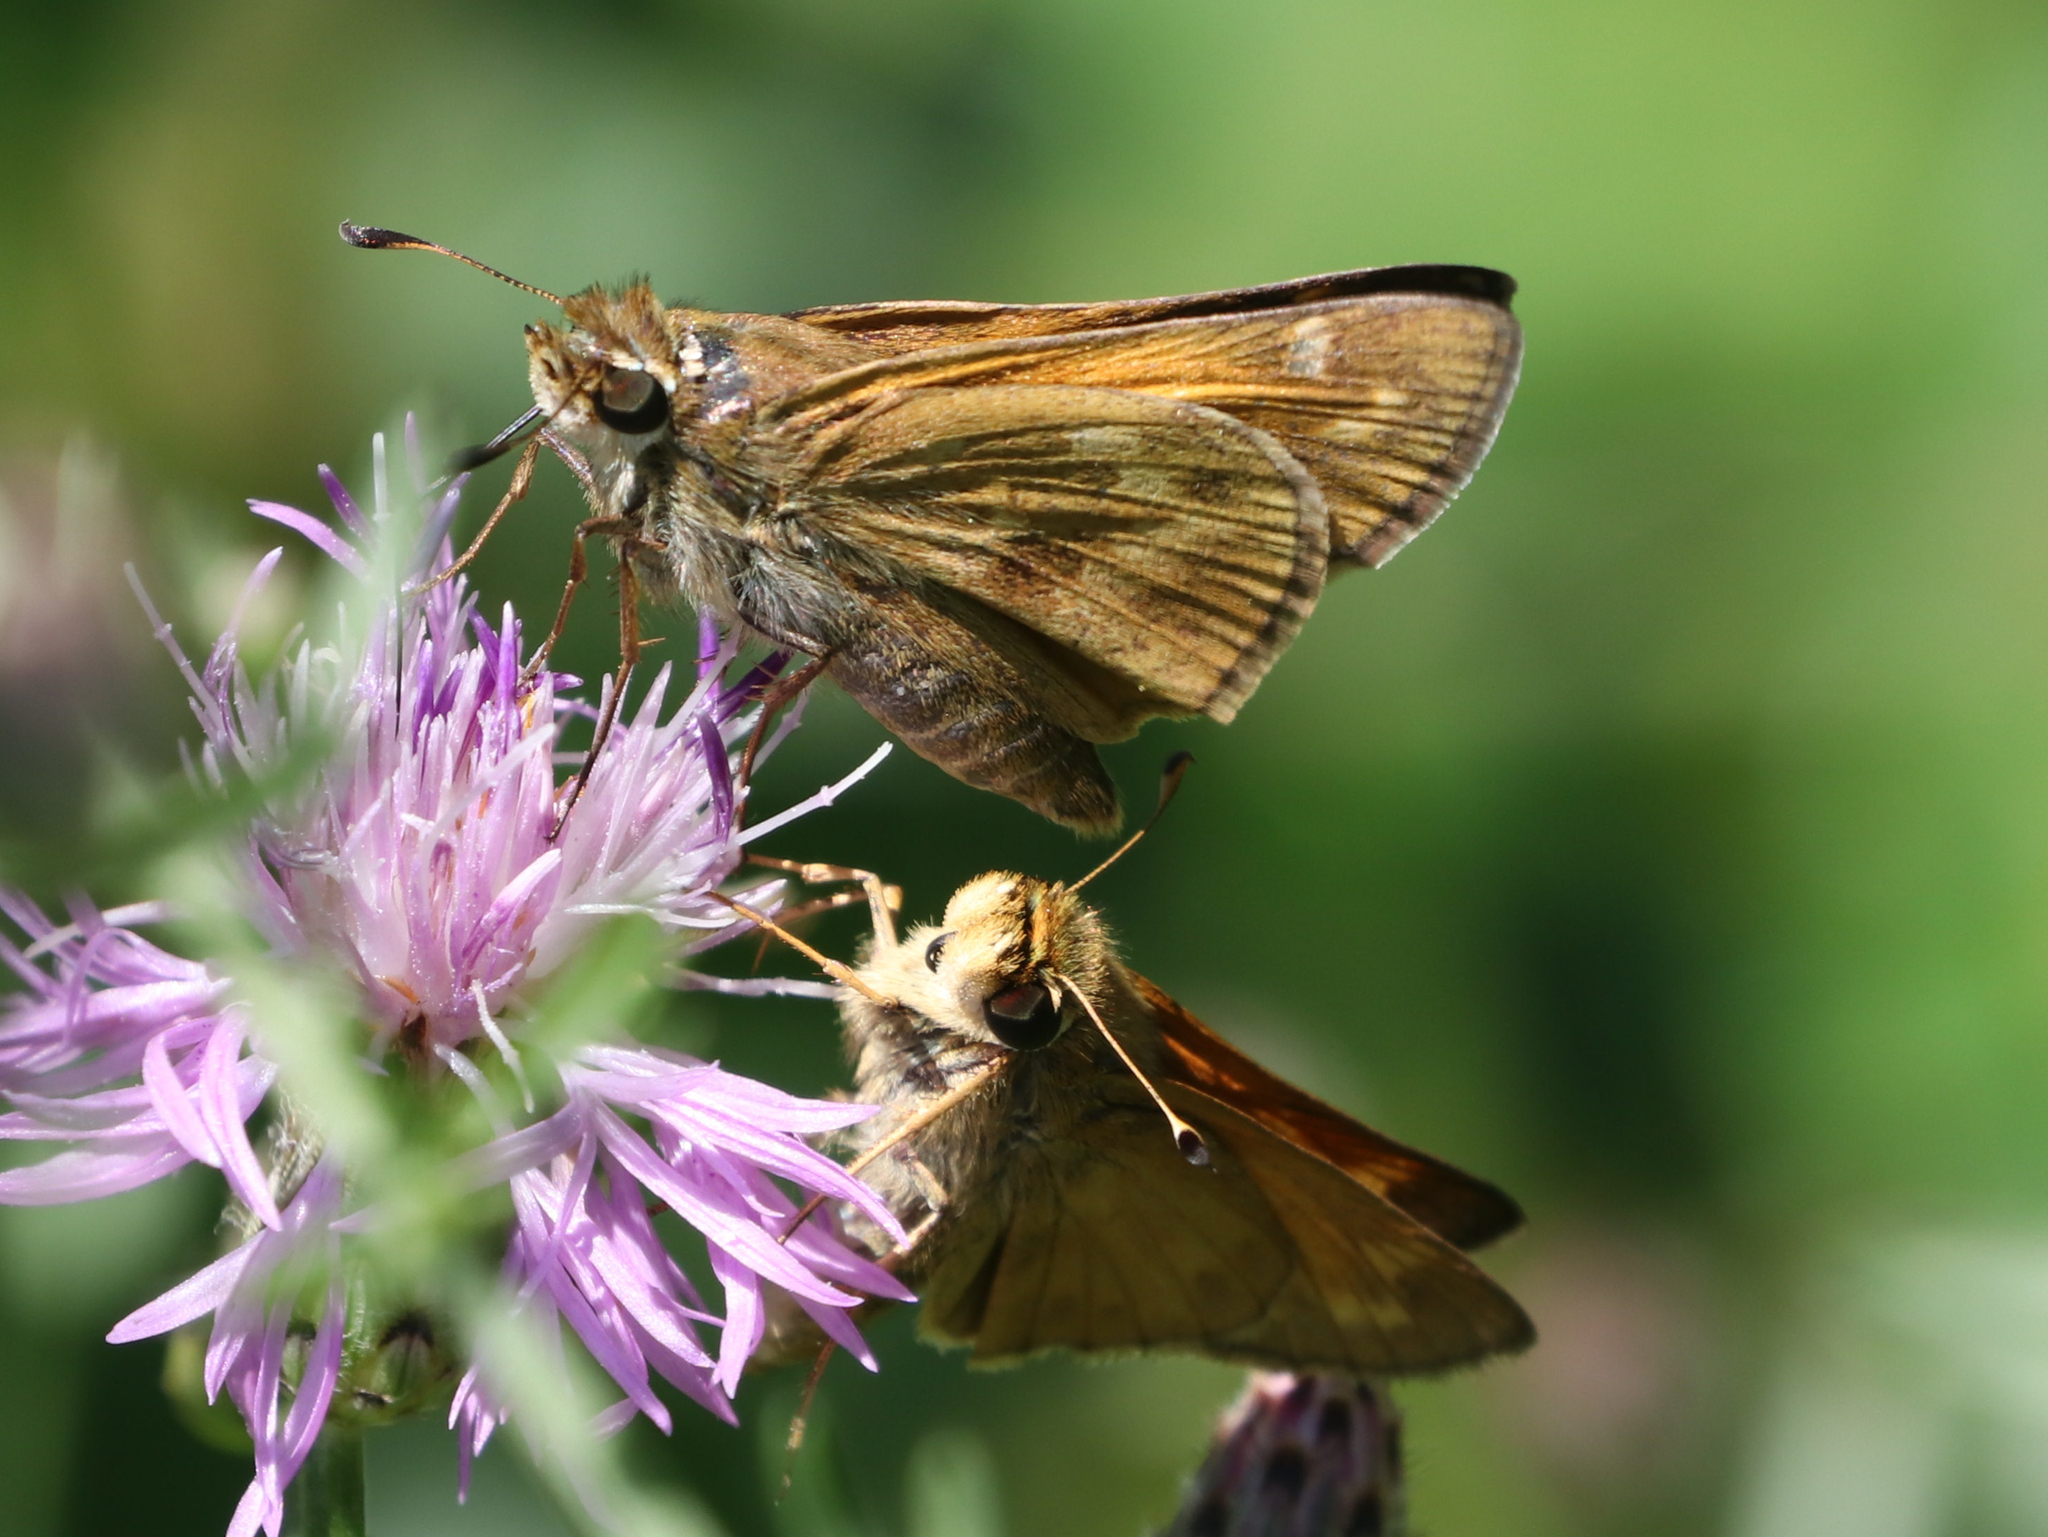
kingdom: Animalia
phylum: Arthropoda
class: Insecta
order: Lepidoptera
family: Hesperiidae
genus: Atalopedes
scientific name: Atalopedes
